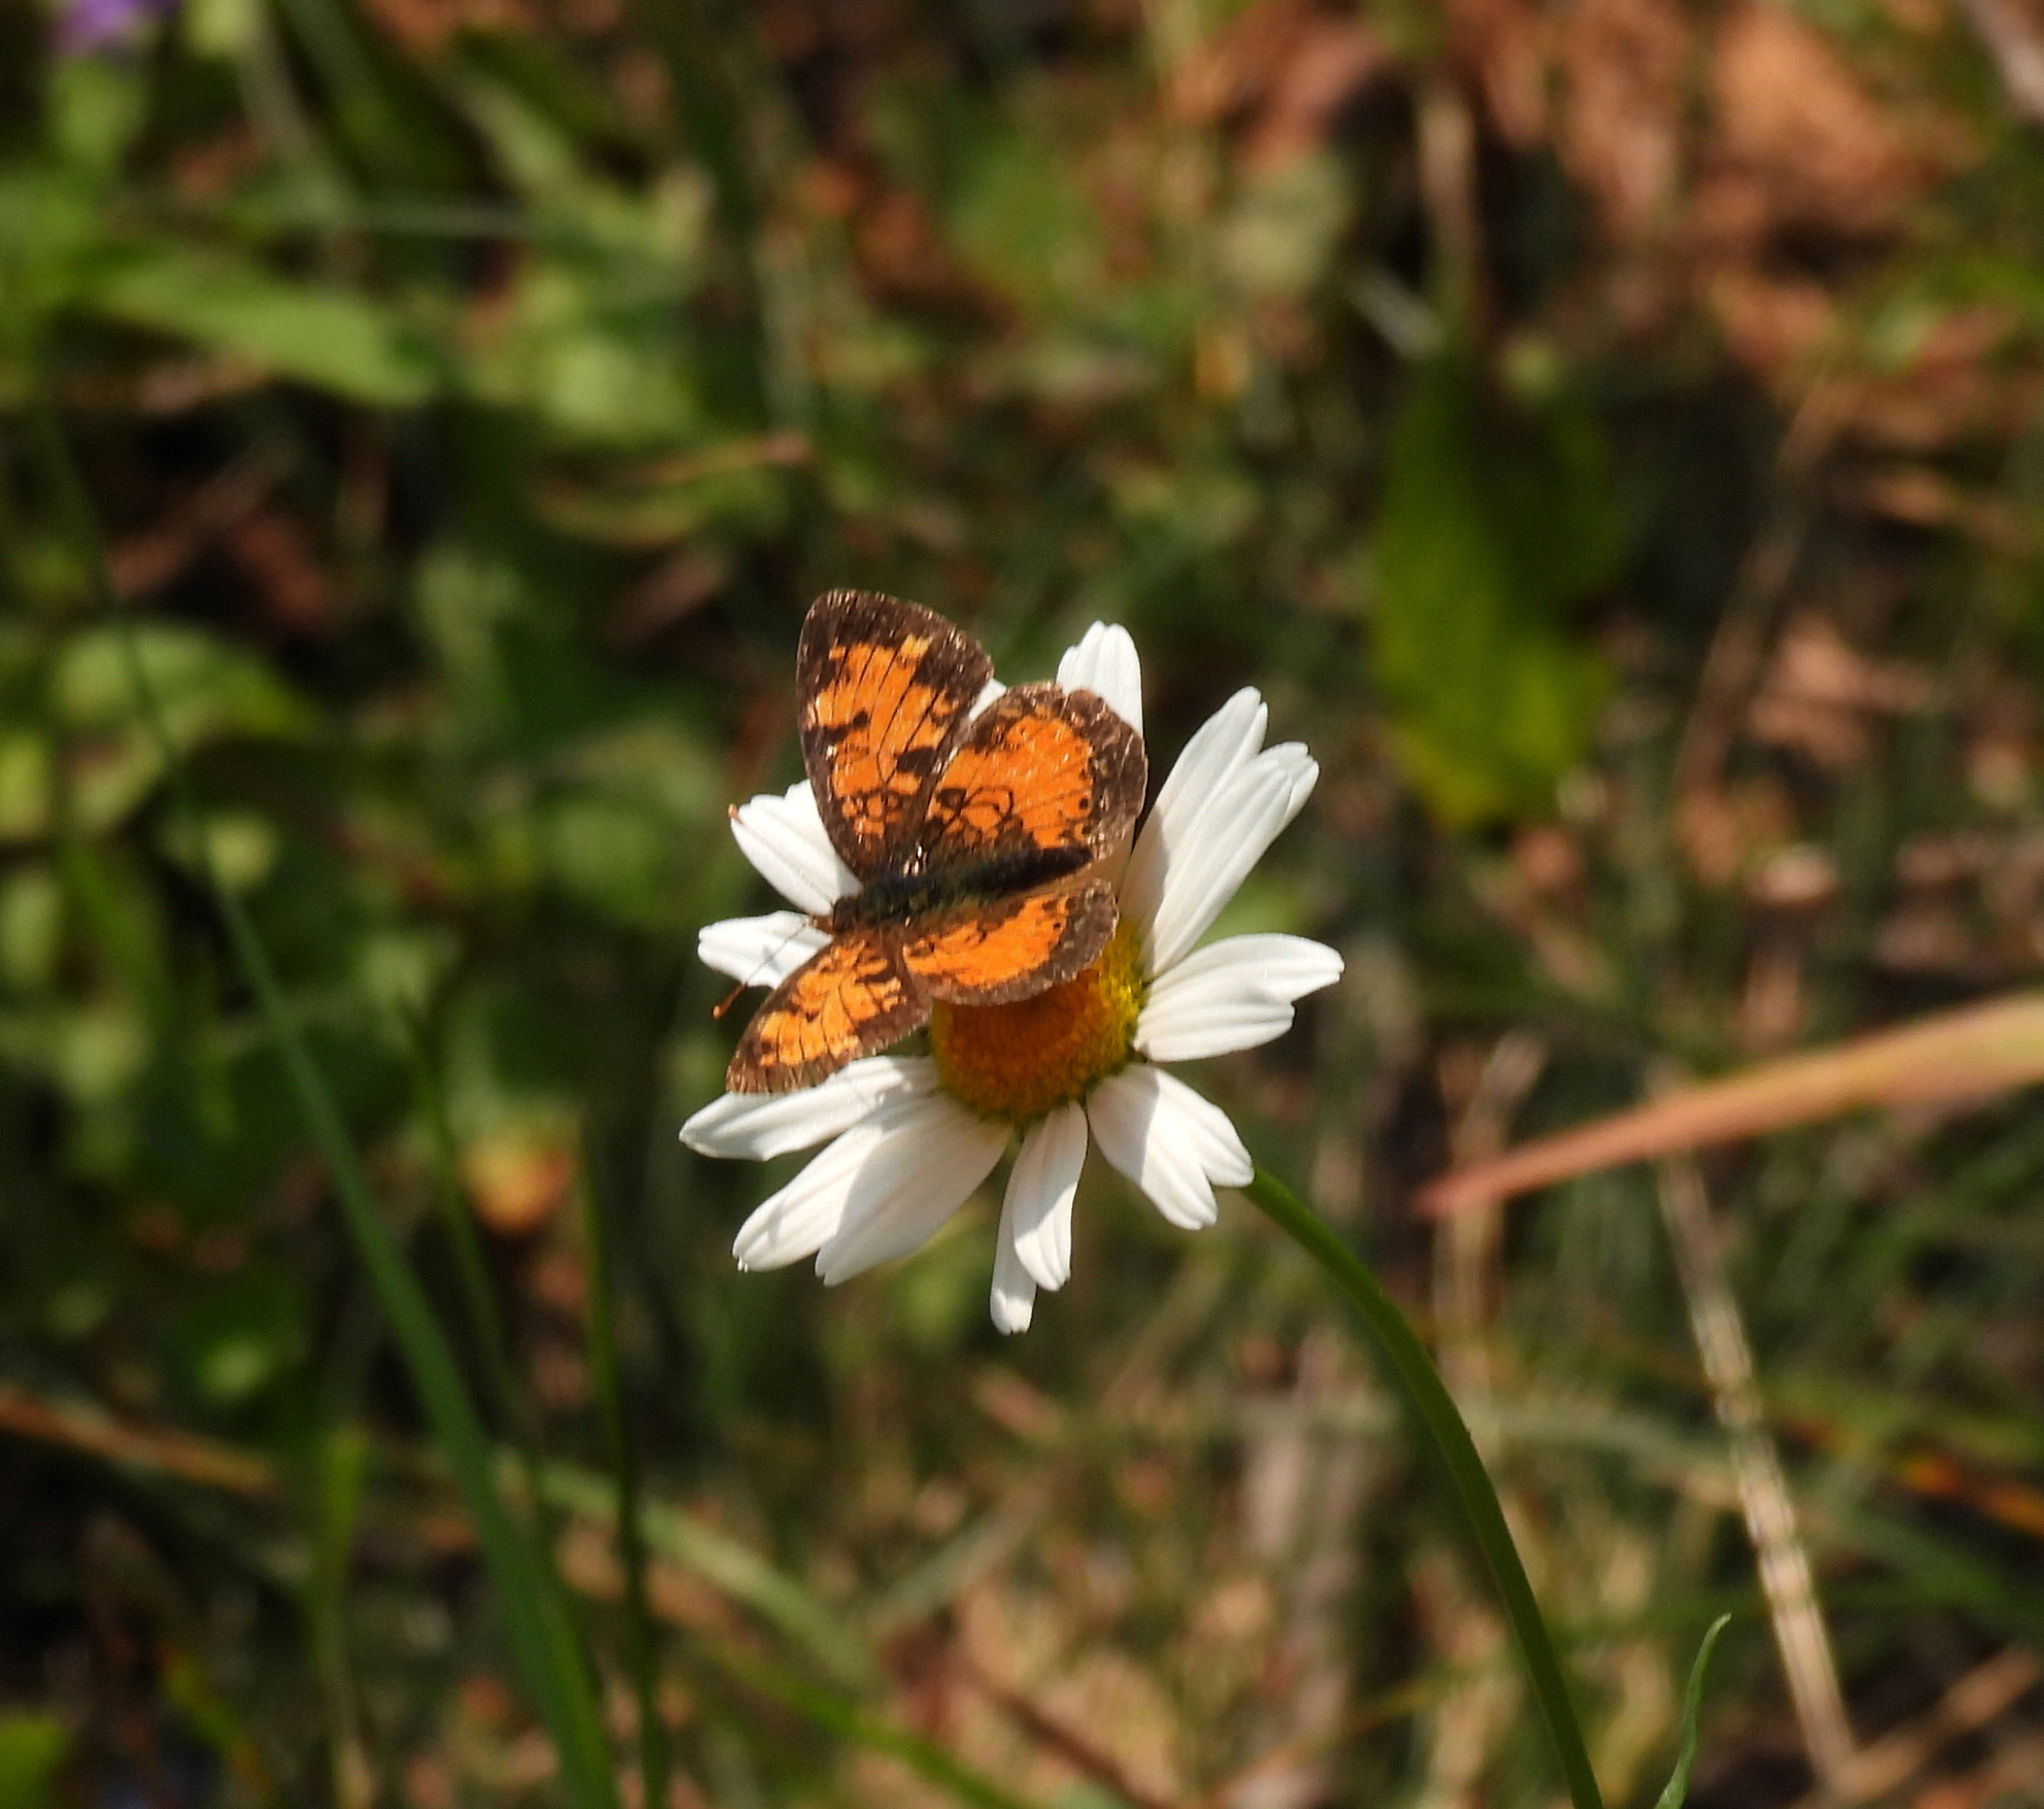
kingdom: Animalia
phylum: Arthropoda
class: Insecta
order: Lepidoptera
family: Nymphalidae
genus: Phyciodes
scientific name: Phyciodes tharos
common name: Pearl crescent
